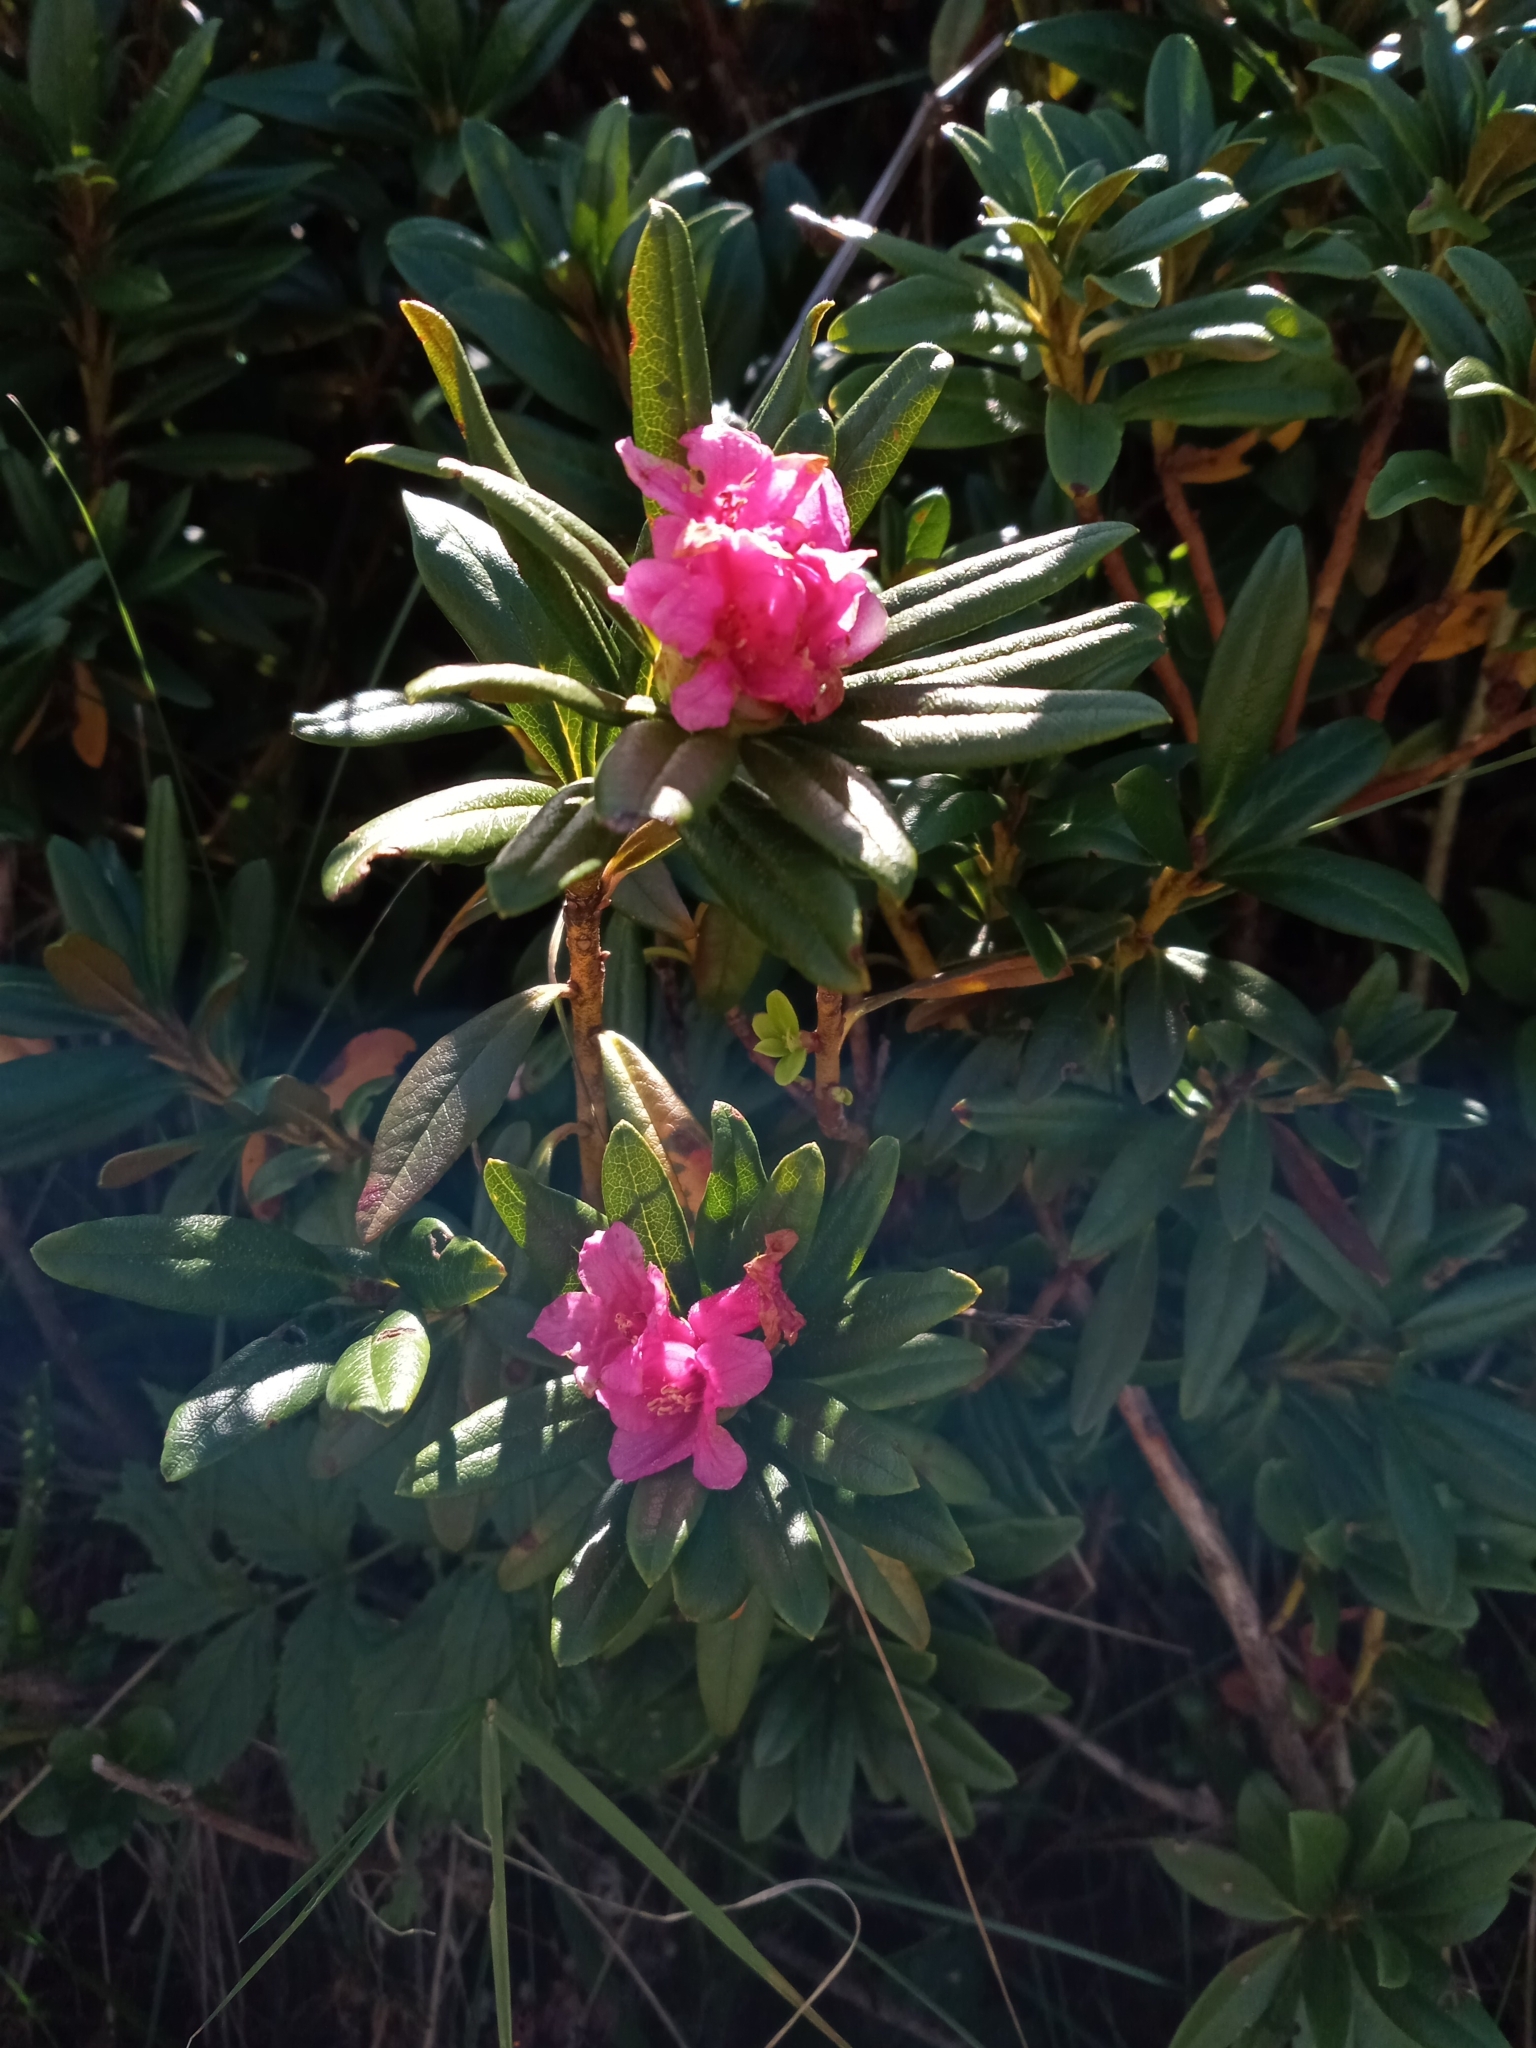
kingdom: Plantae
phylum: Tracheophyta
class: Magnoliopsida
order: Ericales
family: Ericaceae
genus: Rhododendron
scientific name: Rhododendron ferrugineum
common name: Alpenrose
